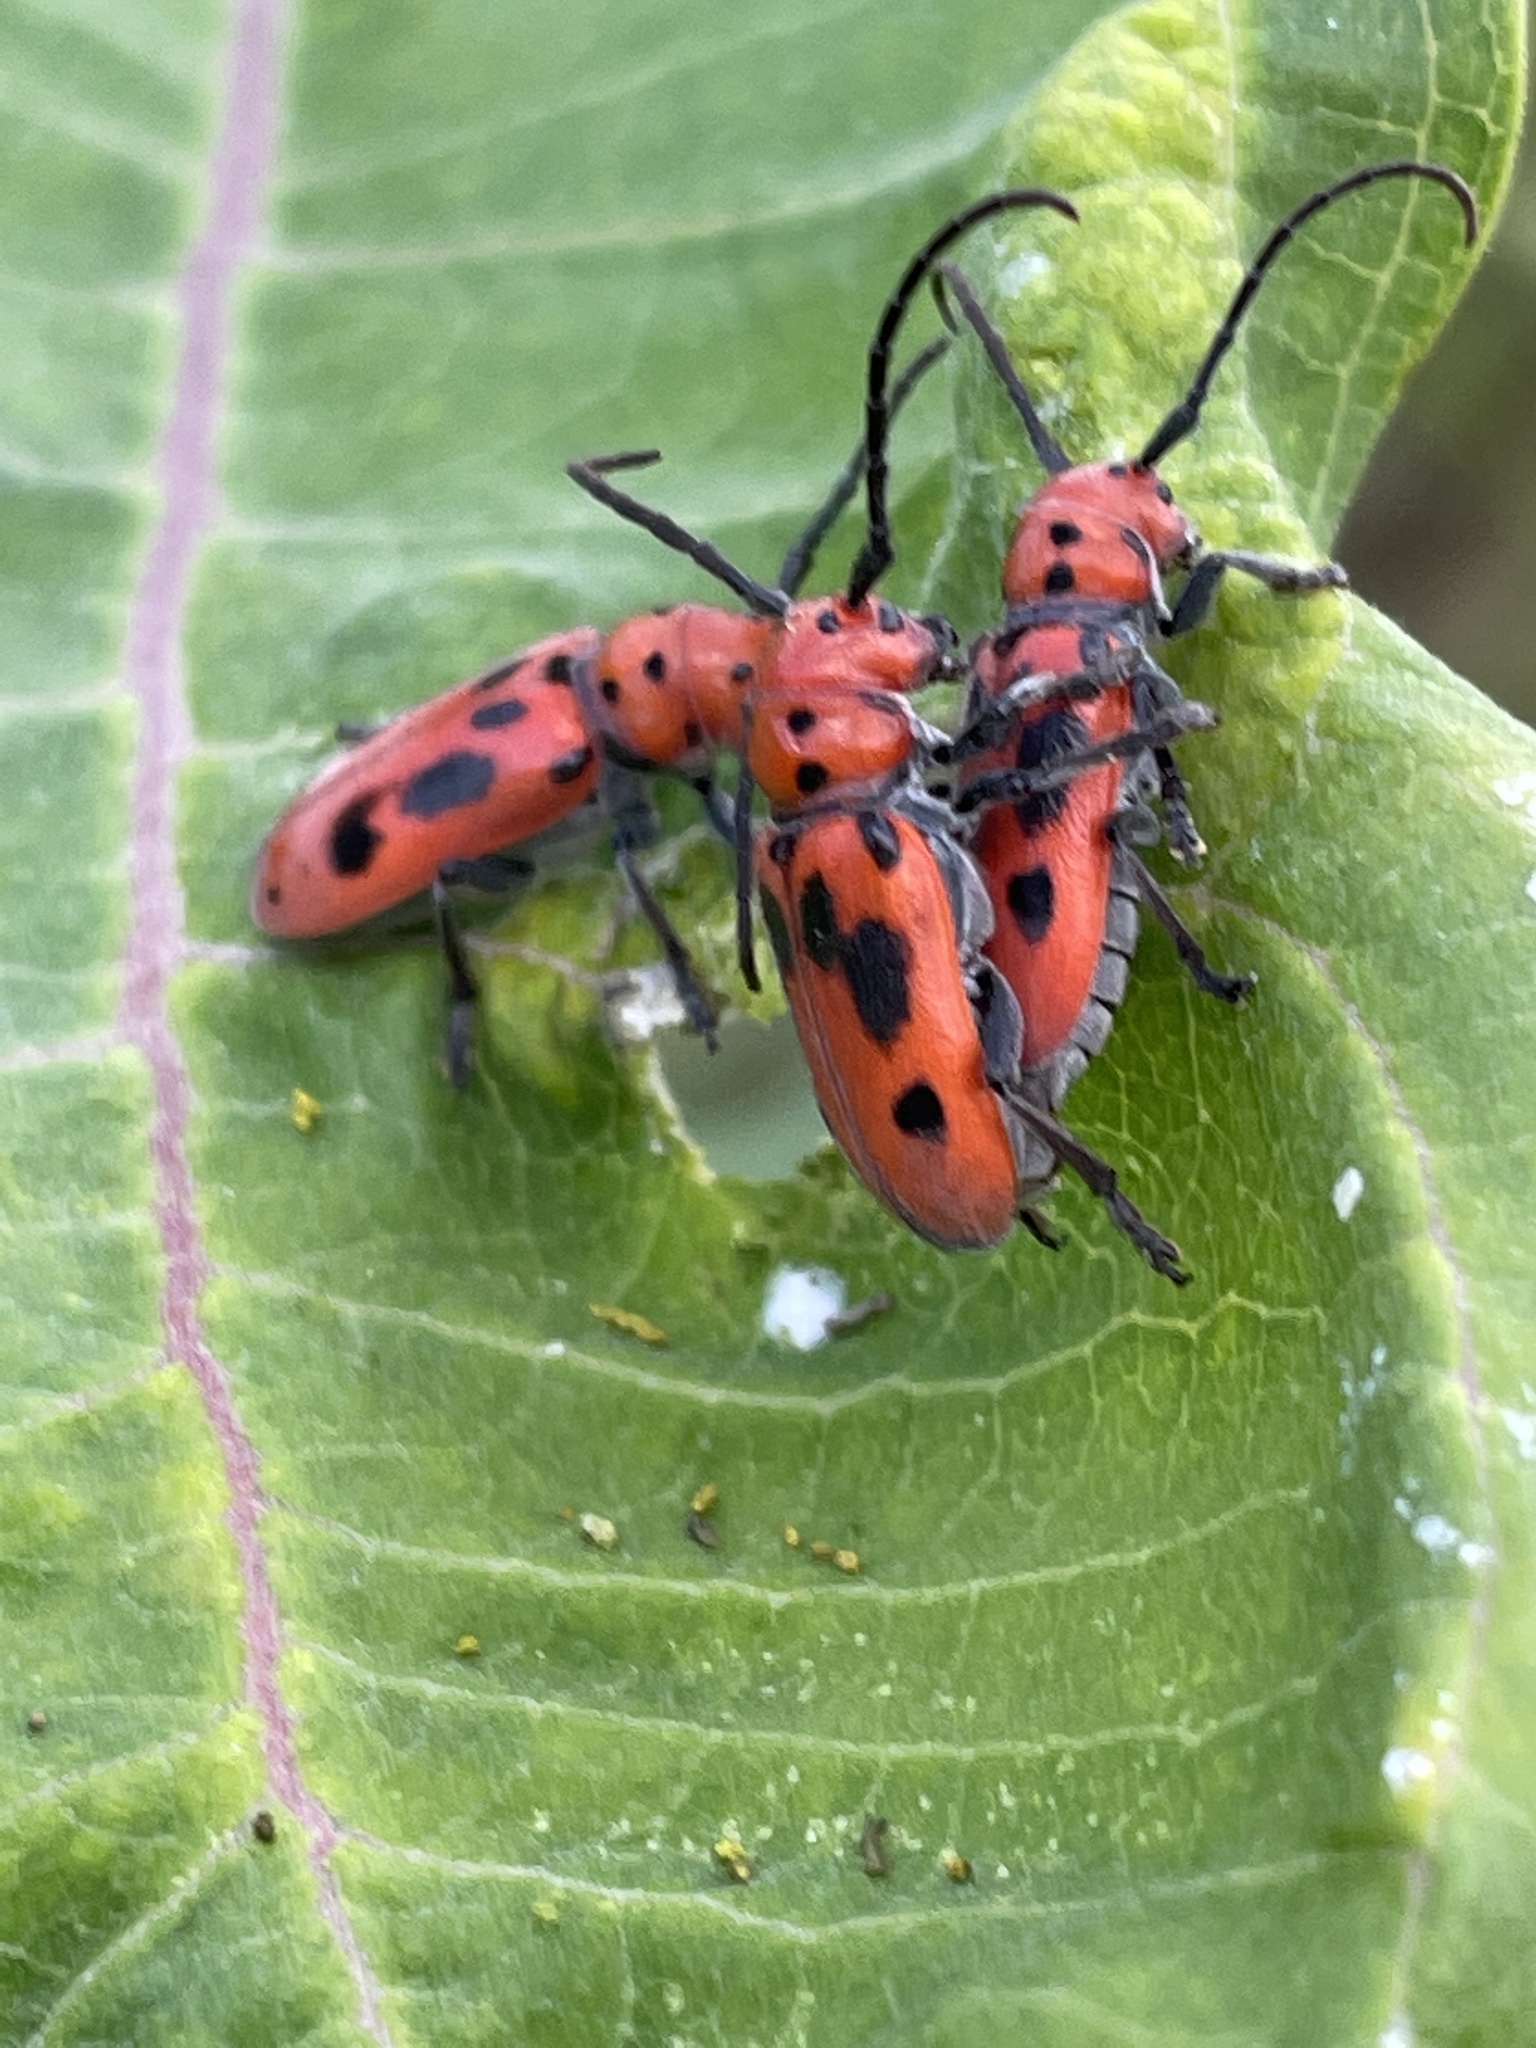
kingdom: Animalia
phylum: Arthropoda
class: Insecta
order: Coleoptera
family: Cerambycidae
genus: Tetraopes
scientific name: Tetraopes tetrophthalmus
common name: Red milkweed beetle
